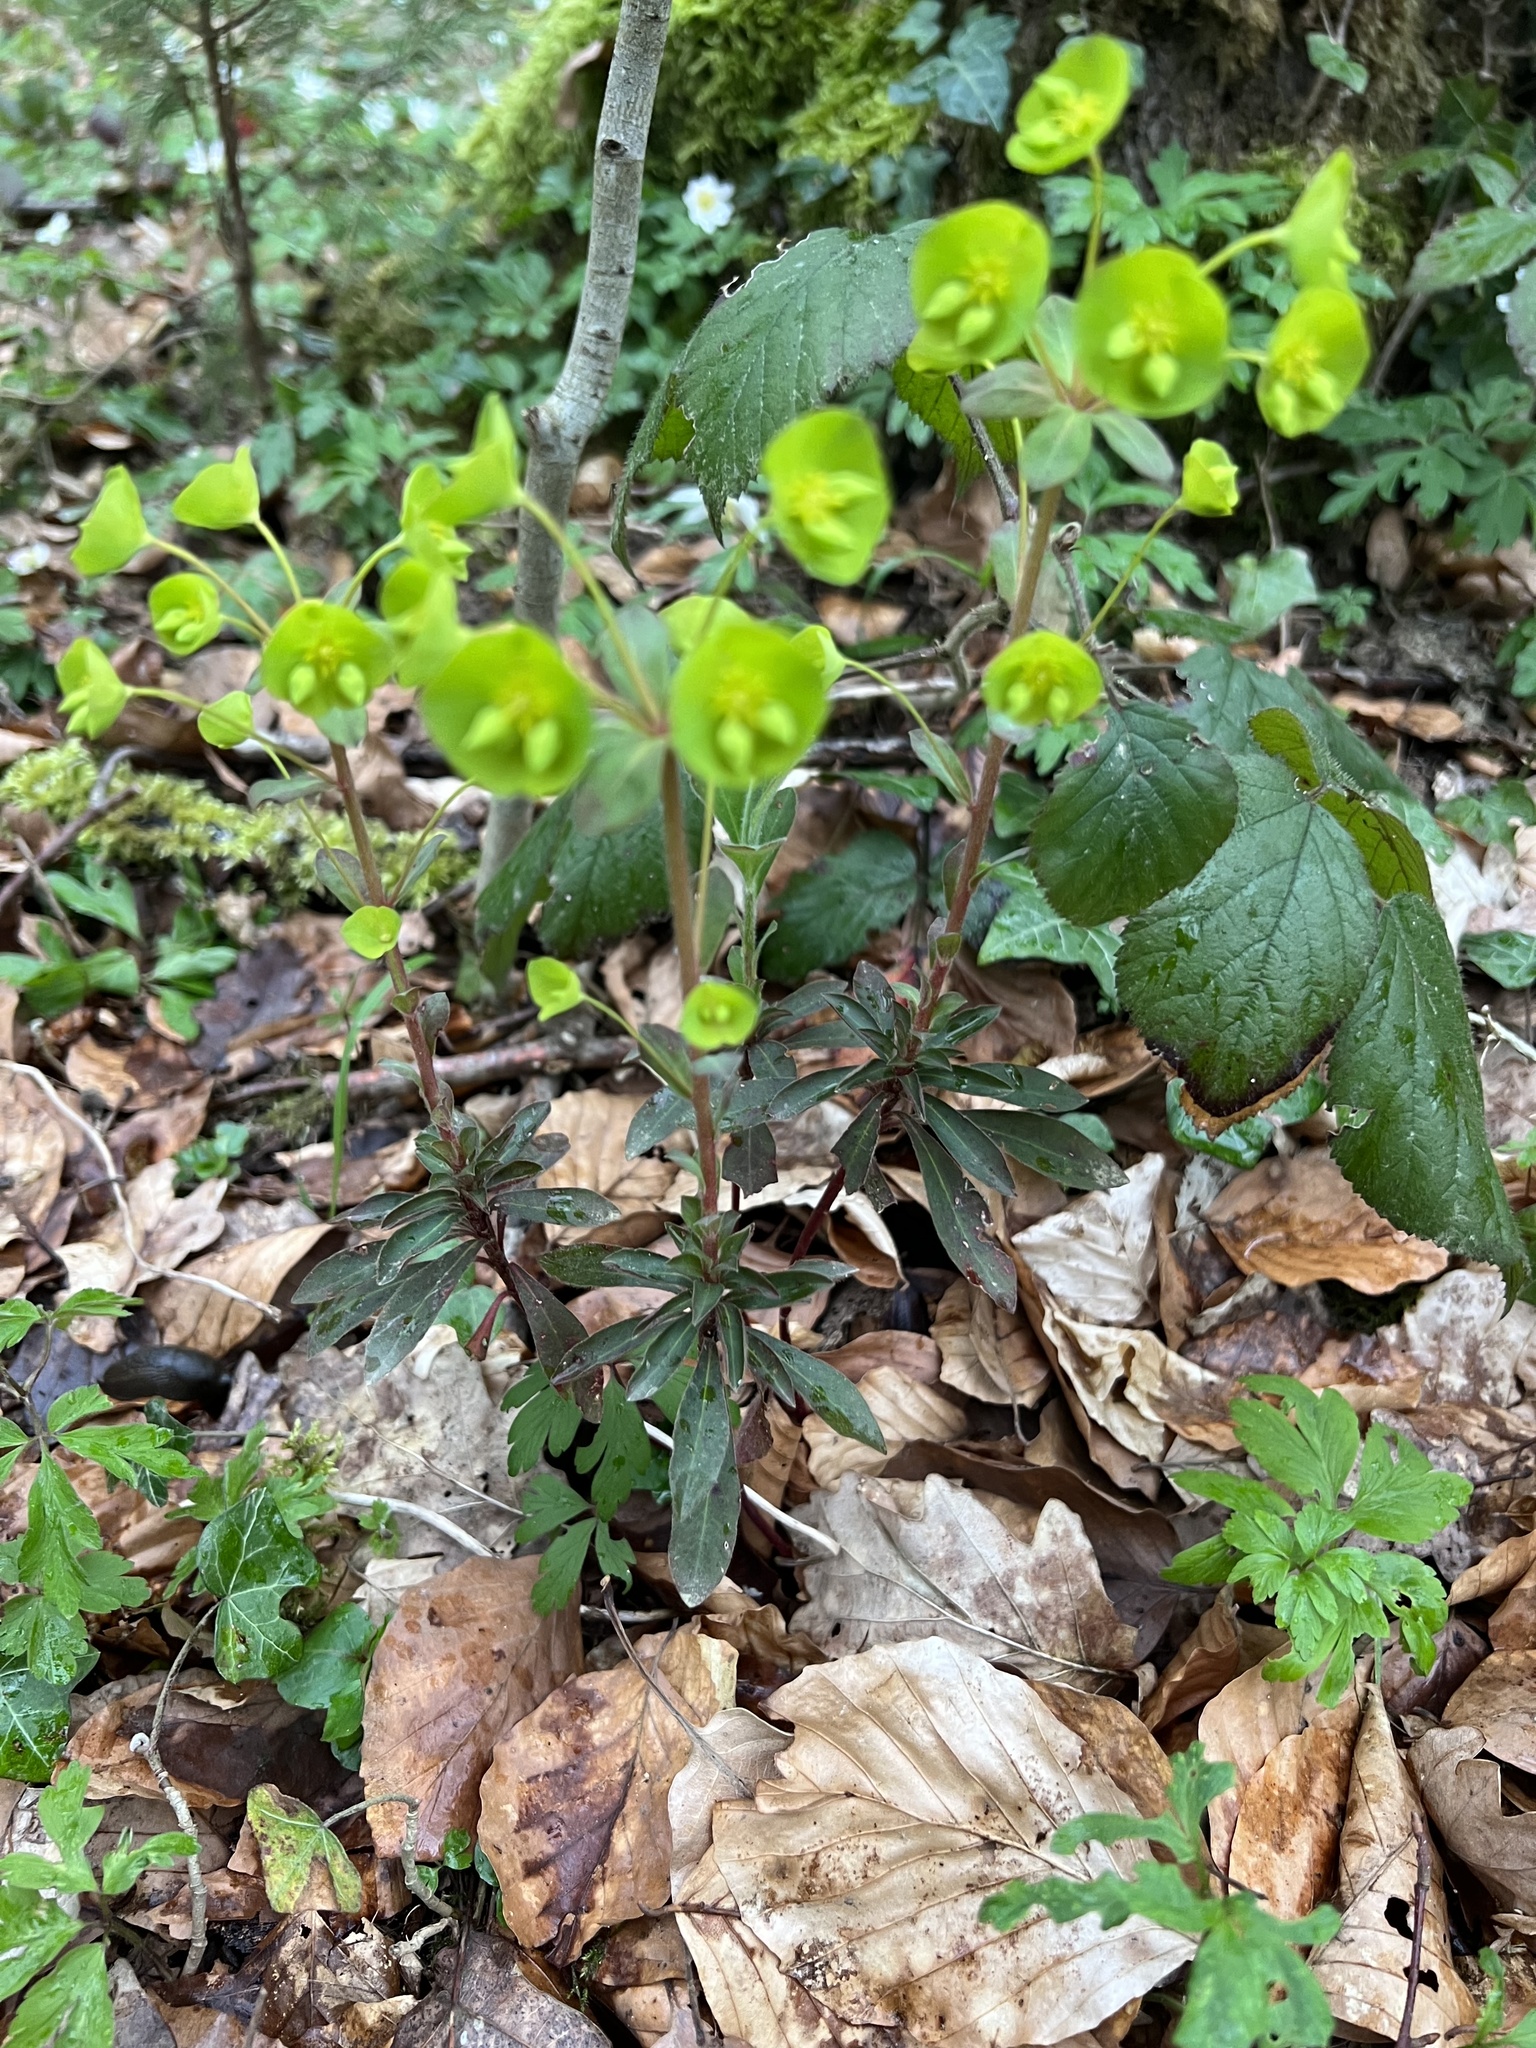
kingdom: Plantae
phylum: Tracheophyta
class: Magnoliopsida
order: Malpighiales
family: Euphorbiaceae
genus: Euphorbia
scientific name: Euphorbia amygdaloides
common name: Wood spurge
